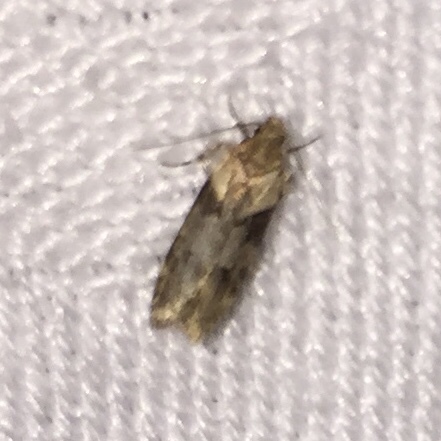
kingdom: Animalia
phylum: Arthropoda
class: Insecta
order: Lepidoptera
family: Gelechiidae
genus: Chionodes
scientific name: Chionodes mediofuscella
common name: Black-smudged chionodes moth
